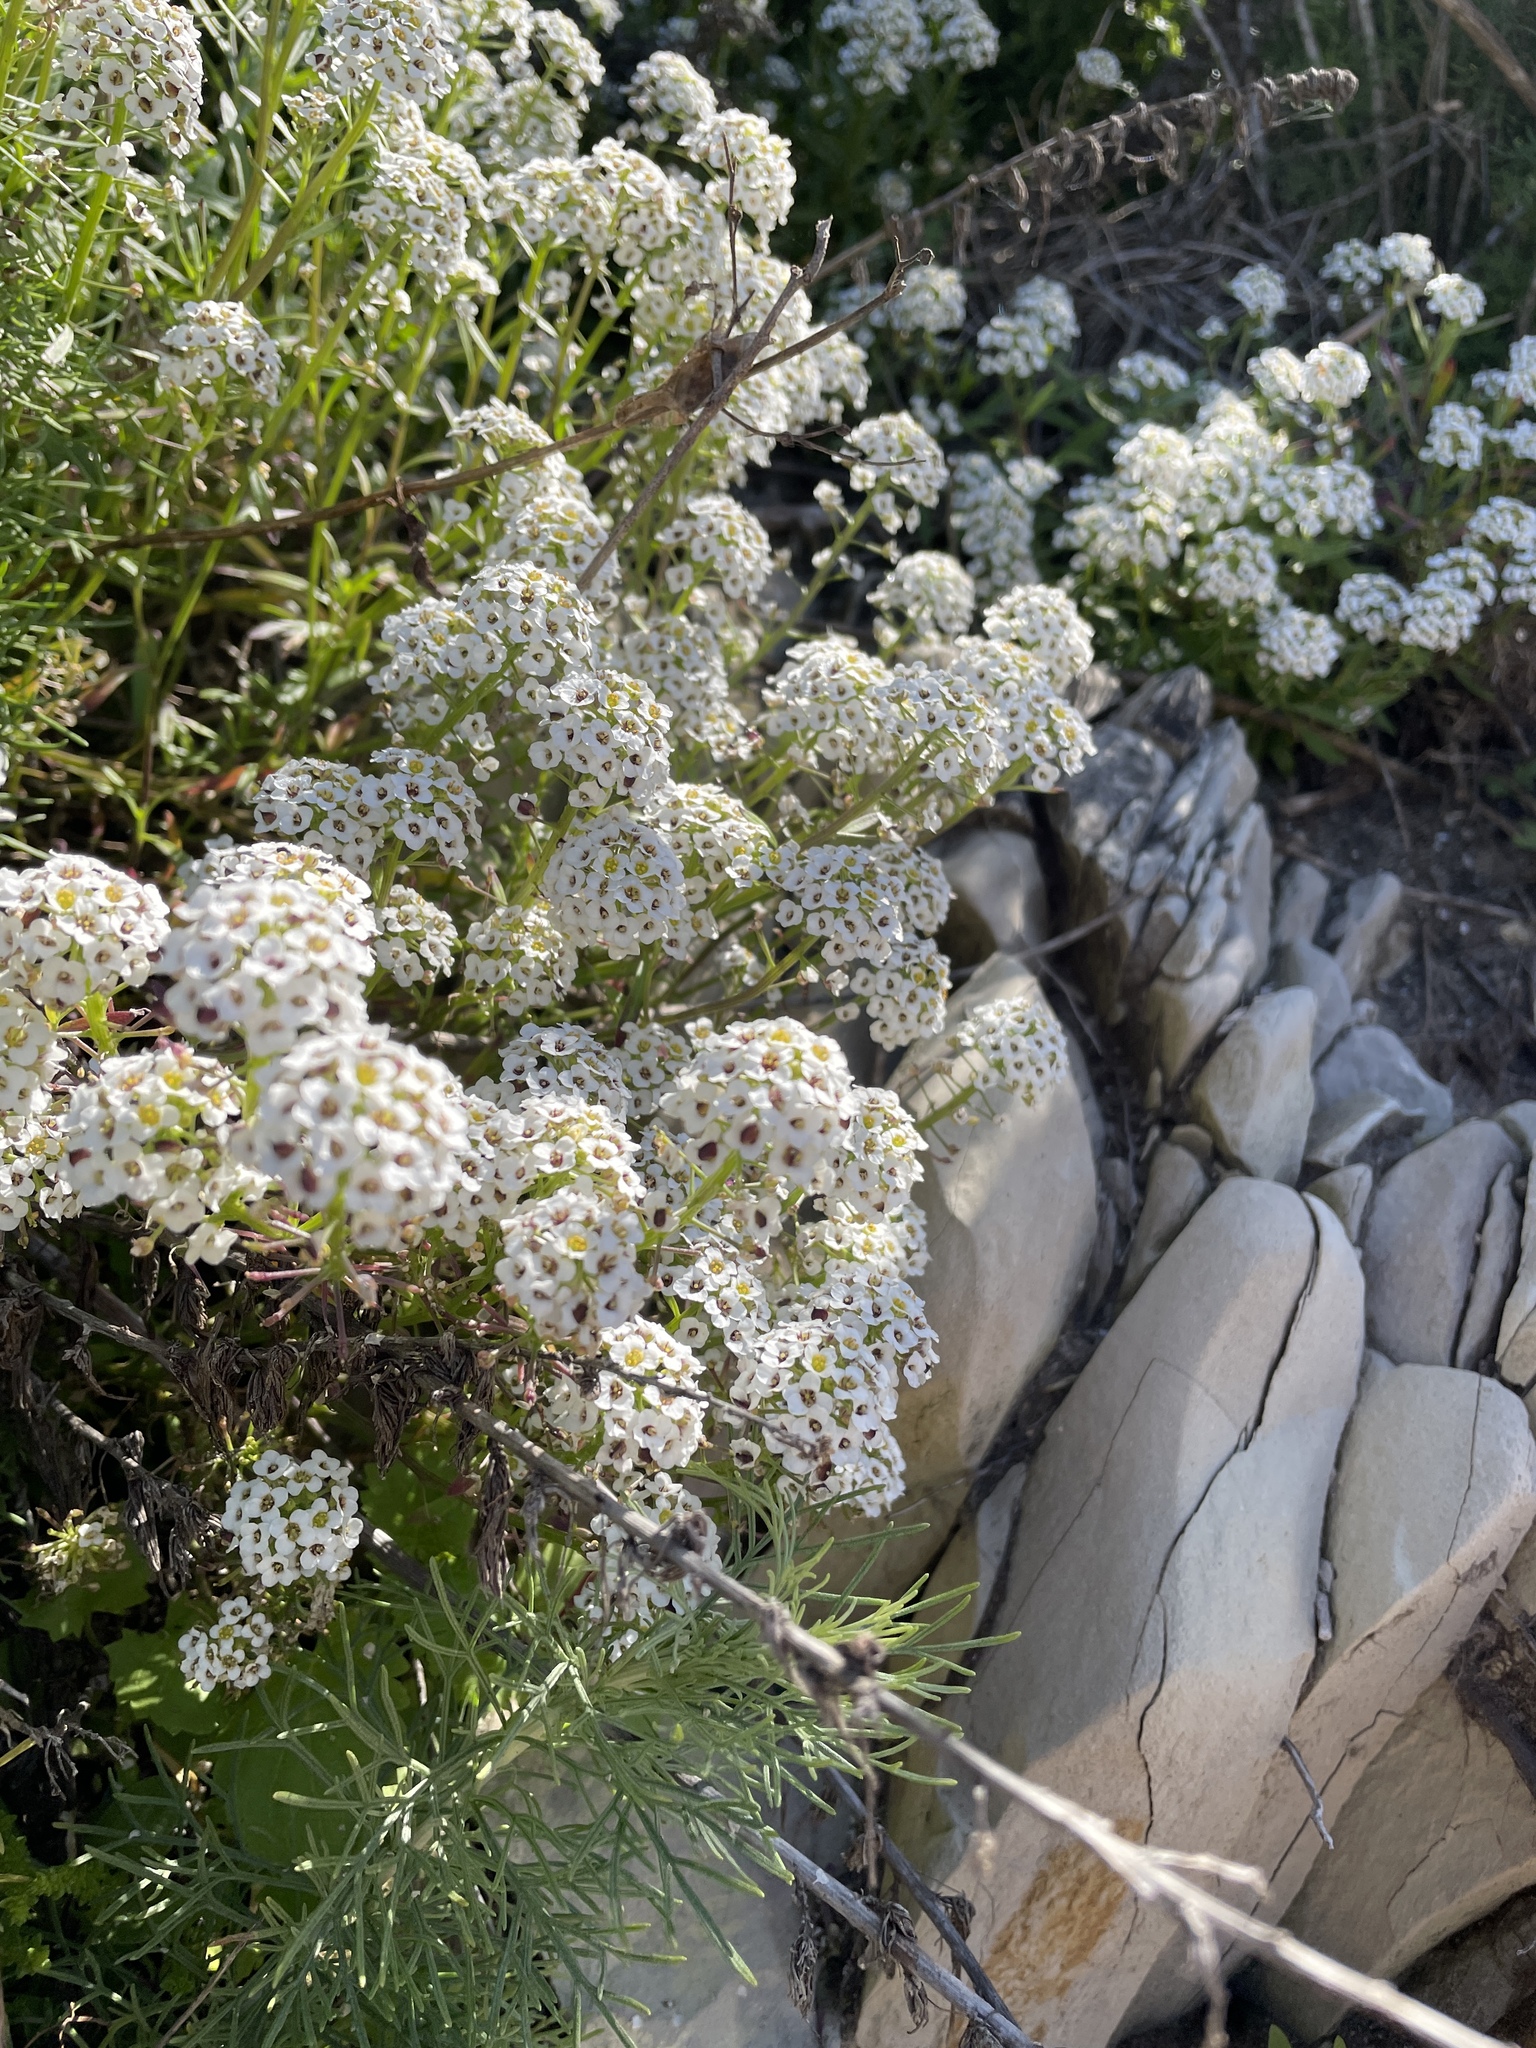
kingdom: Plantae
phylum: Tracheophyta
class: Magnoliopsida
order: Brassicales
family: Brassicaceae
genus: Lobularia
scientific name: Lobularia maritima
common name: Sweet alison
